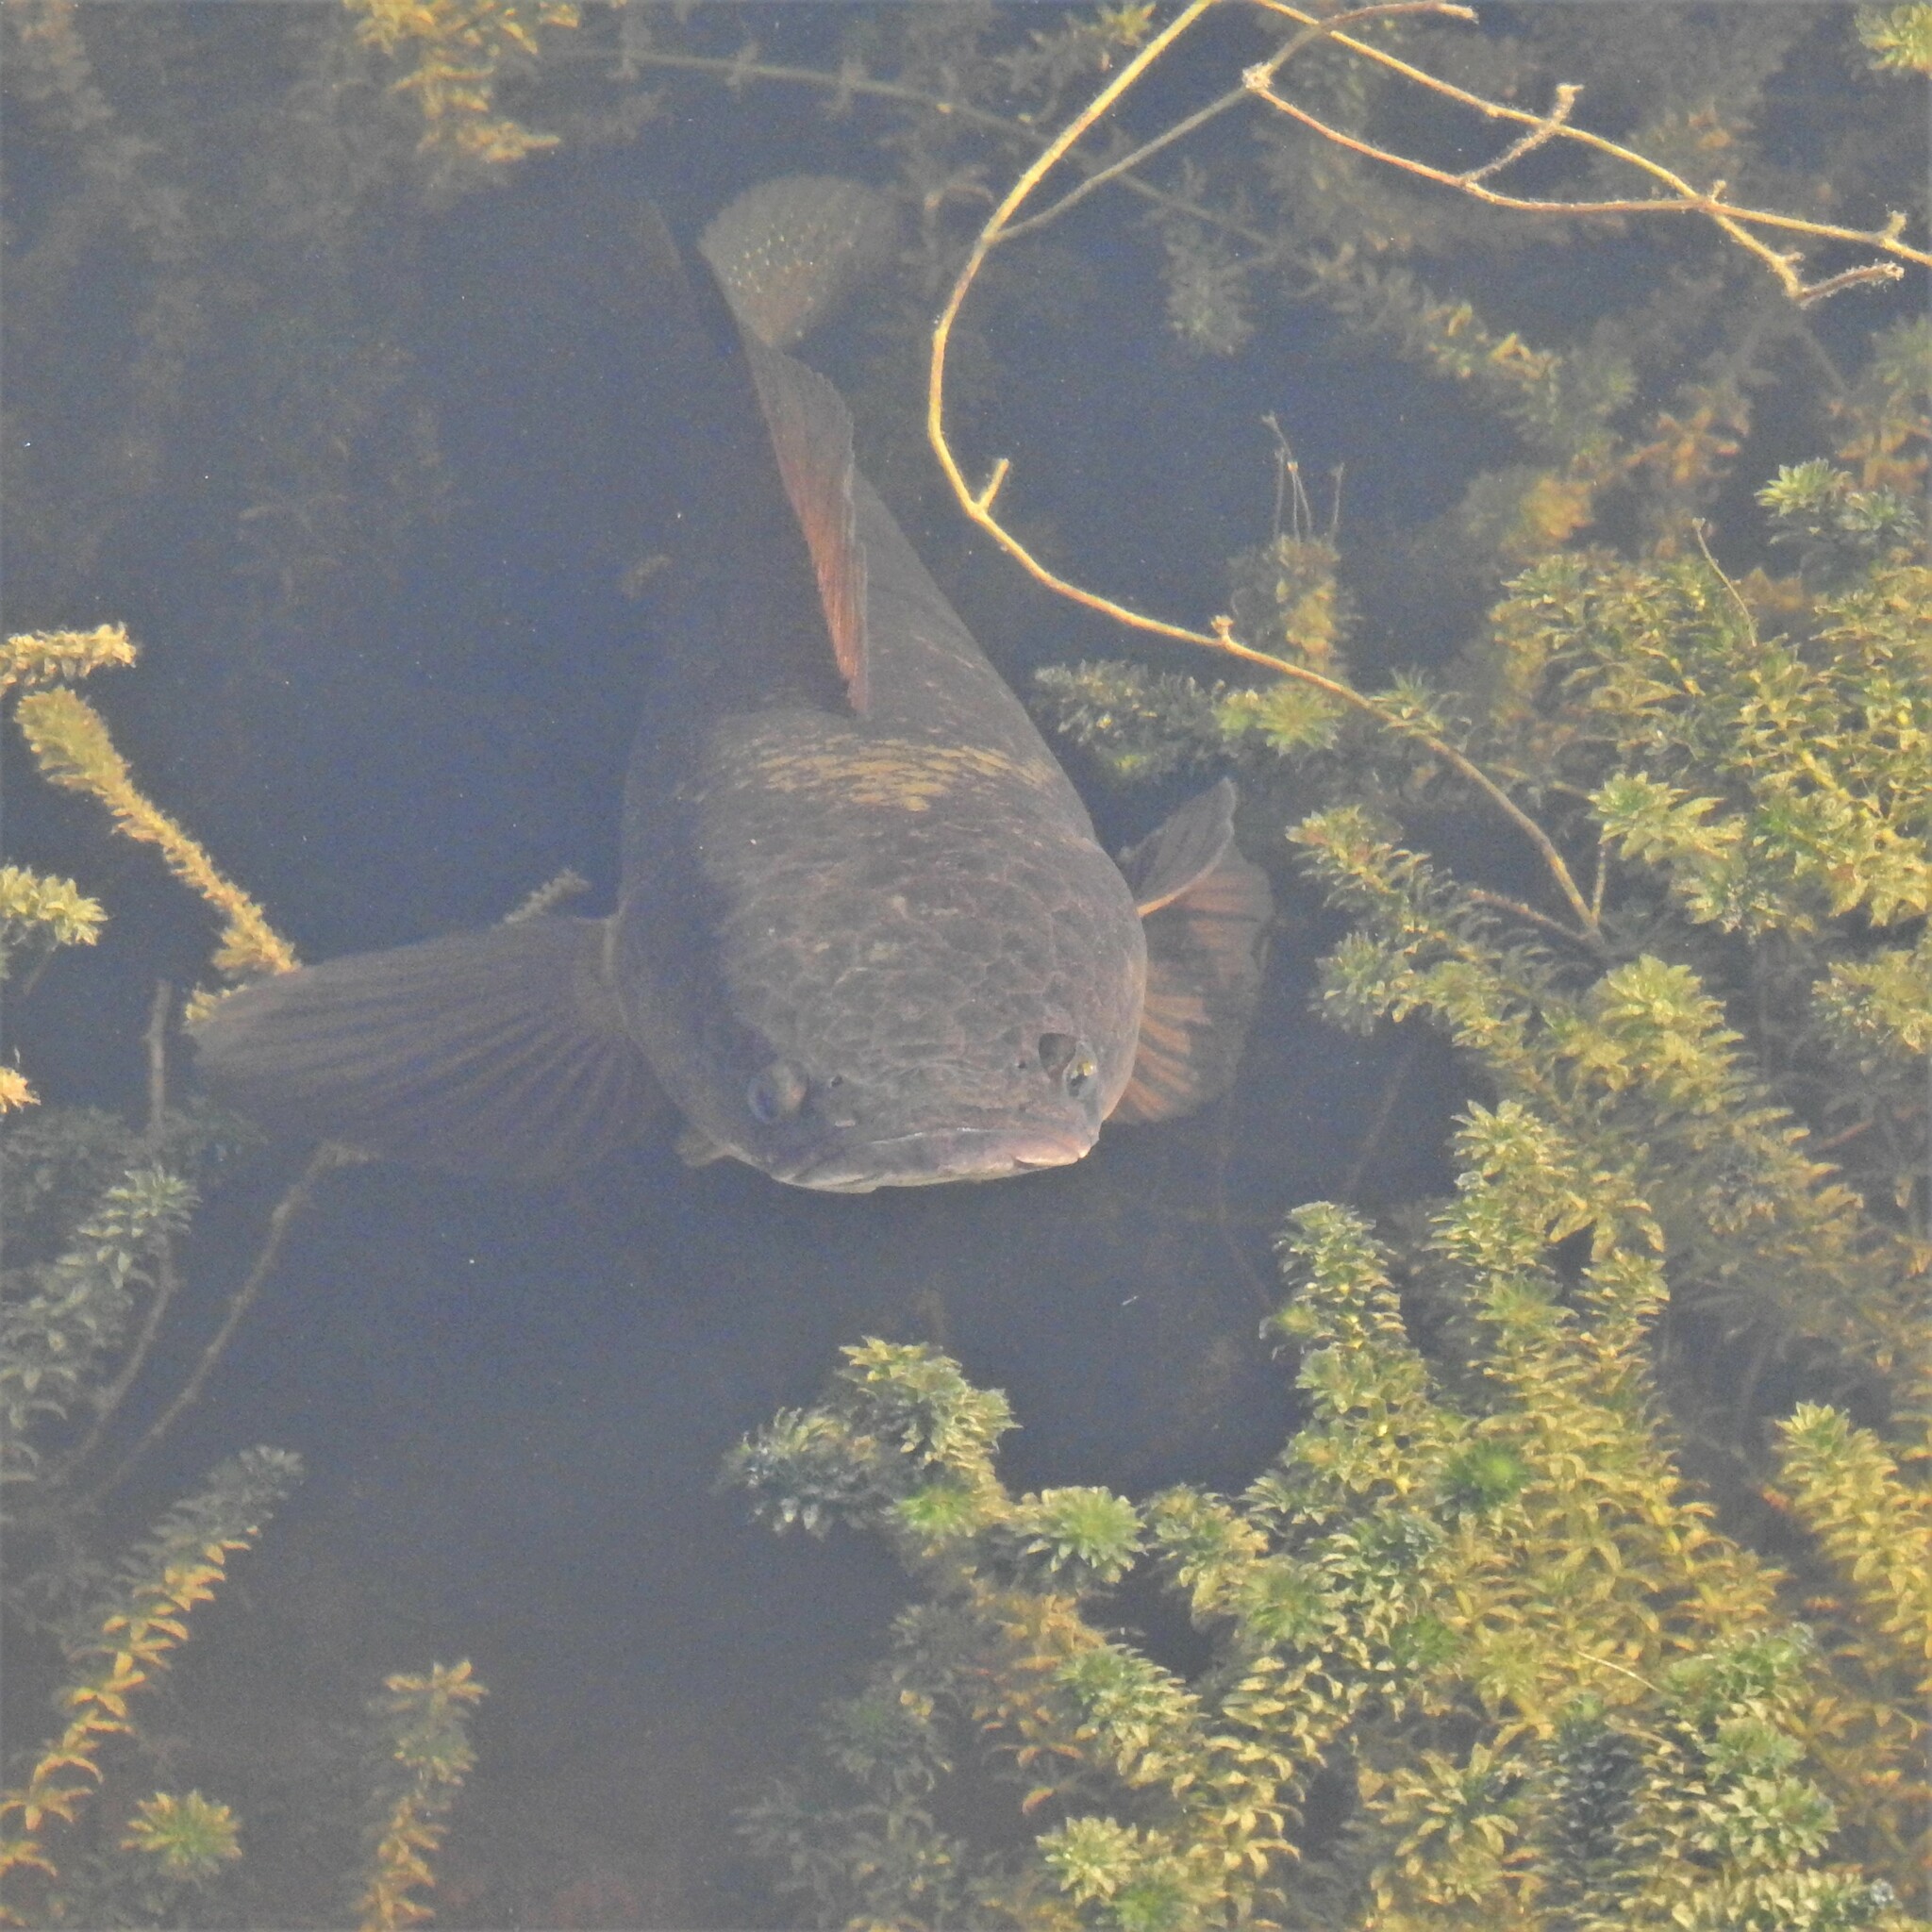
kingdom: Animalia
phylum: Chordata
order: Perciformes
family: Channidae
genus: Channa
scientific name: Channa striata
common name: Striped snakehead
